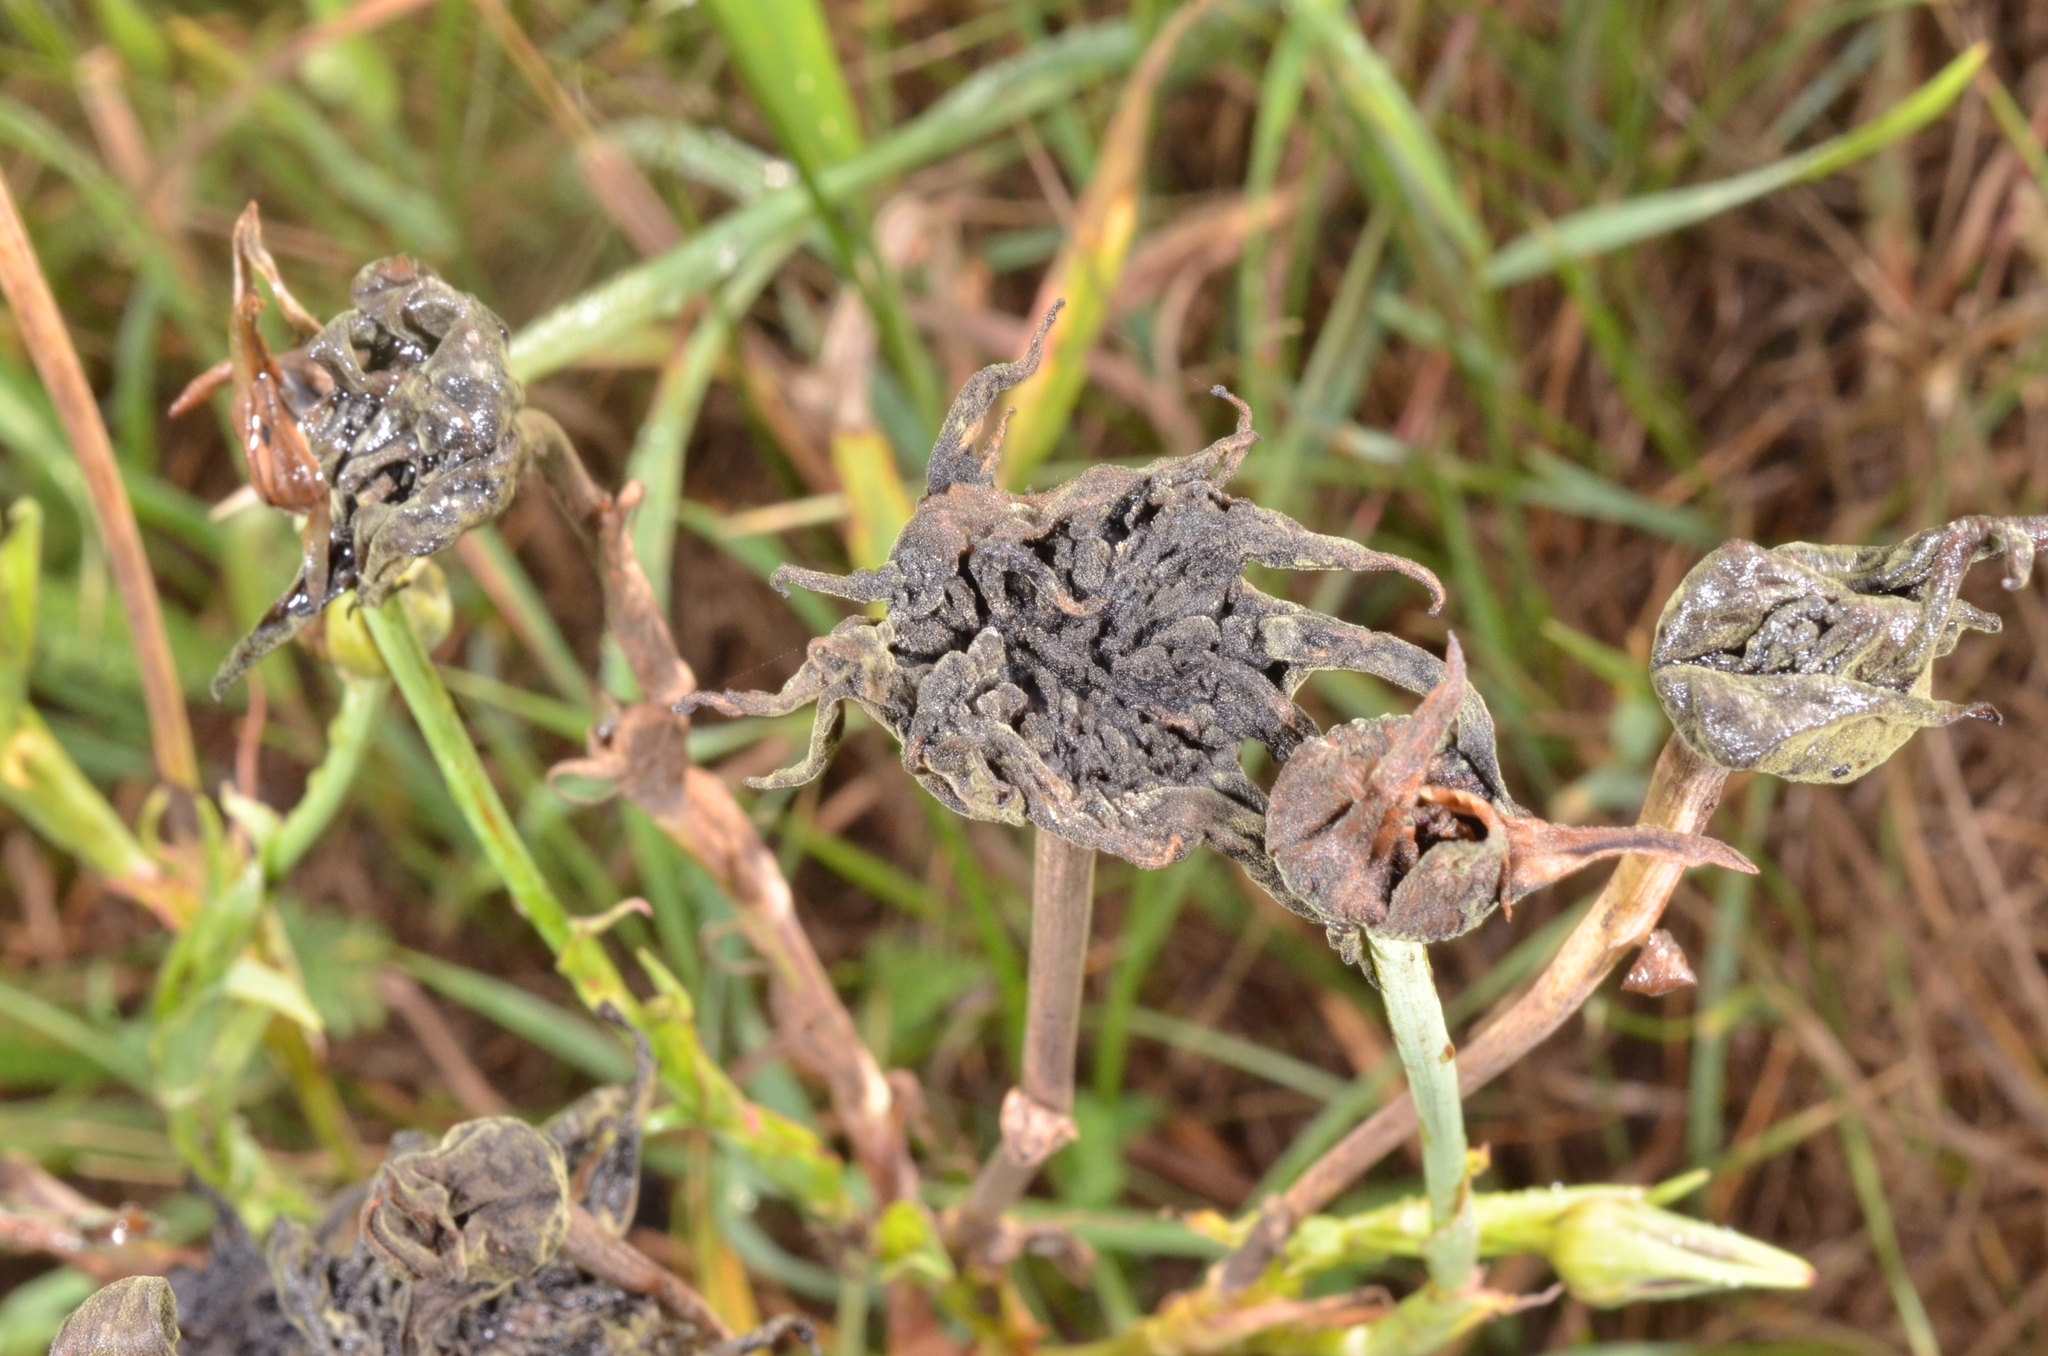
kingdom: Fungi
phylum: Basidiomycota
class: Microbotryomycetes
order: Microbotryales
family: Microbotryaceae
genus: Microbotryum
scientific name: Microbotryum tragopogonis-pratensis
